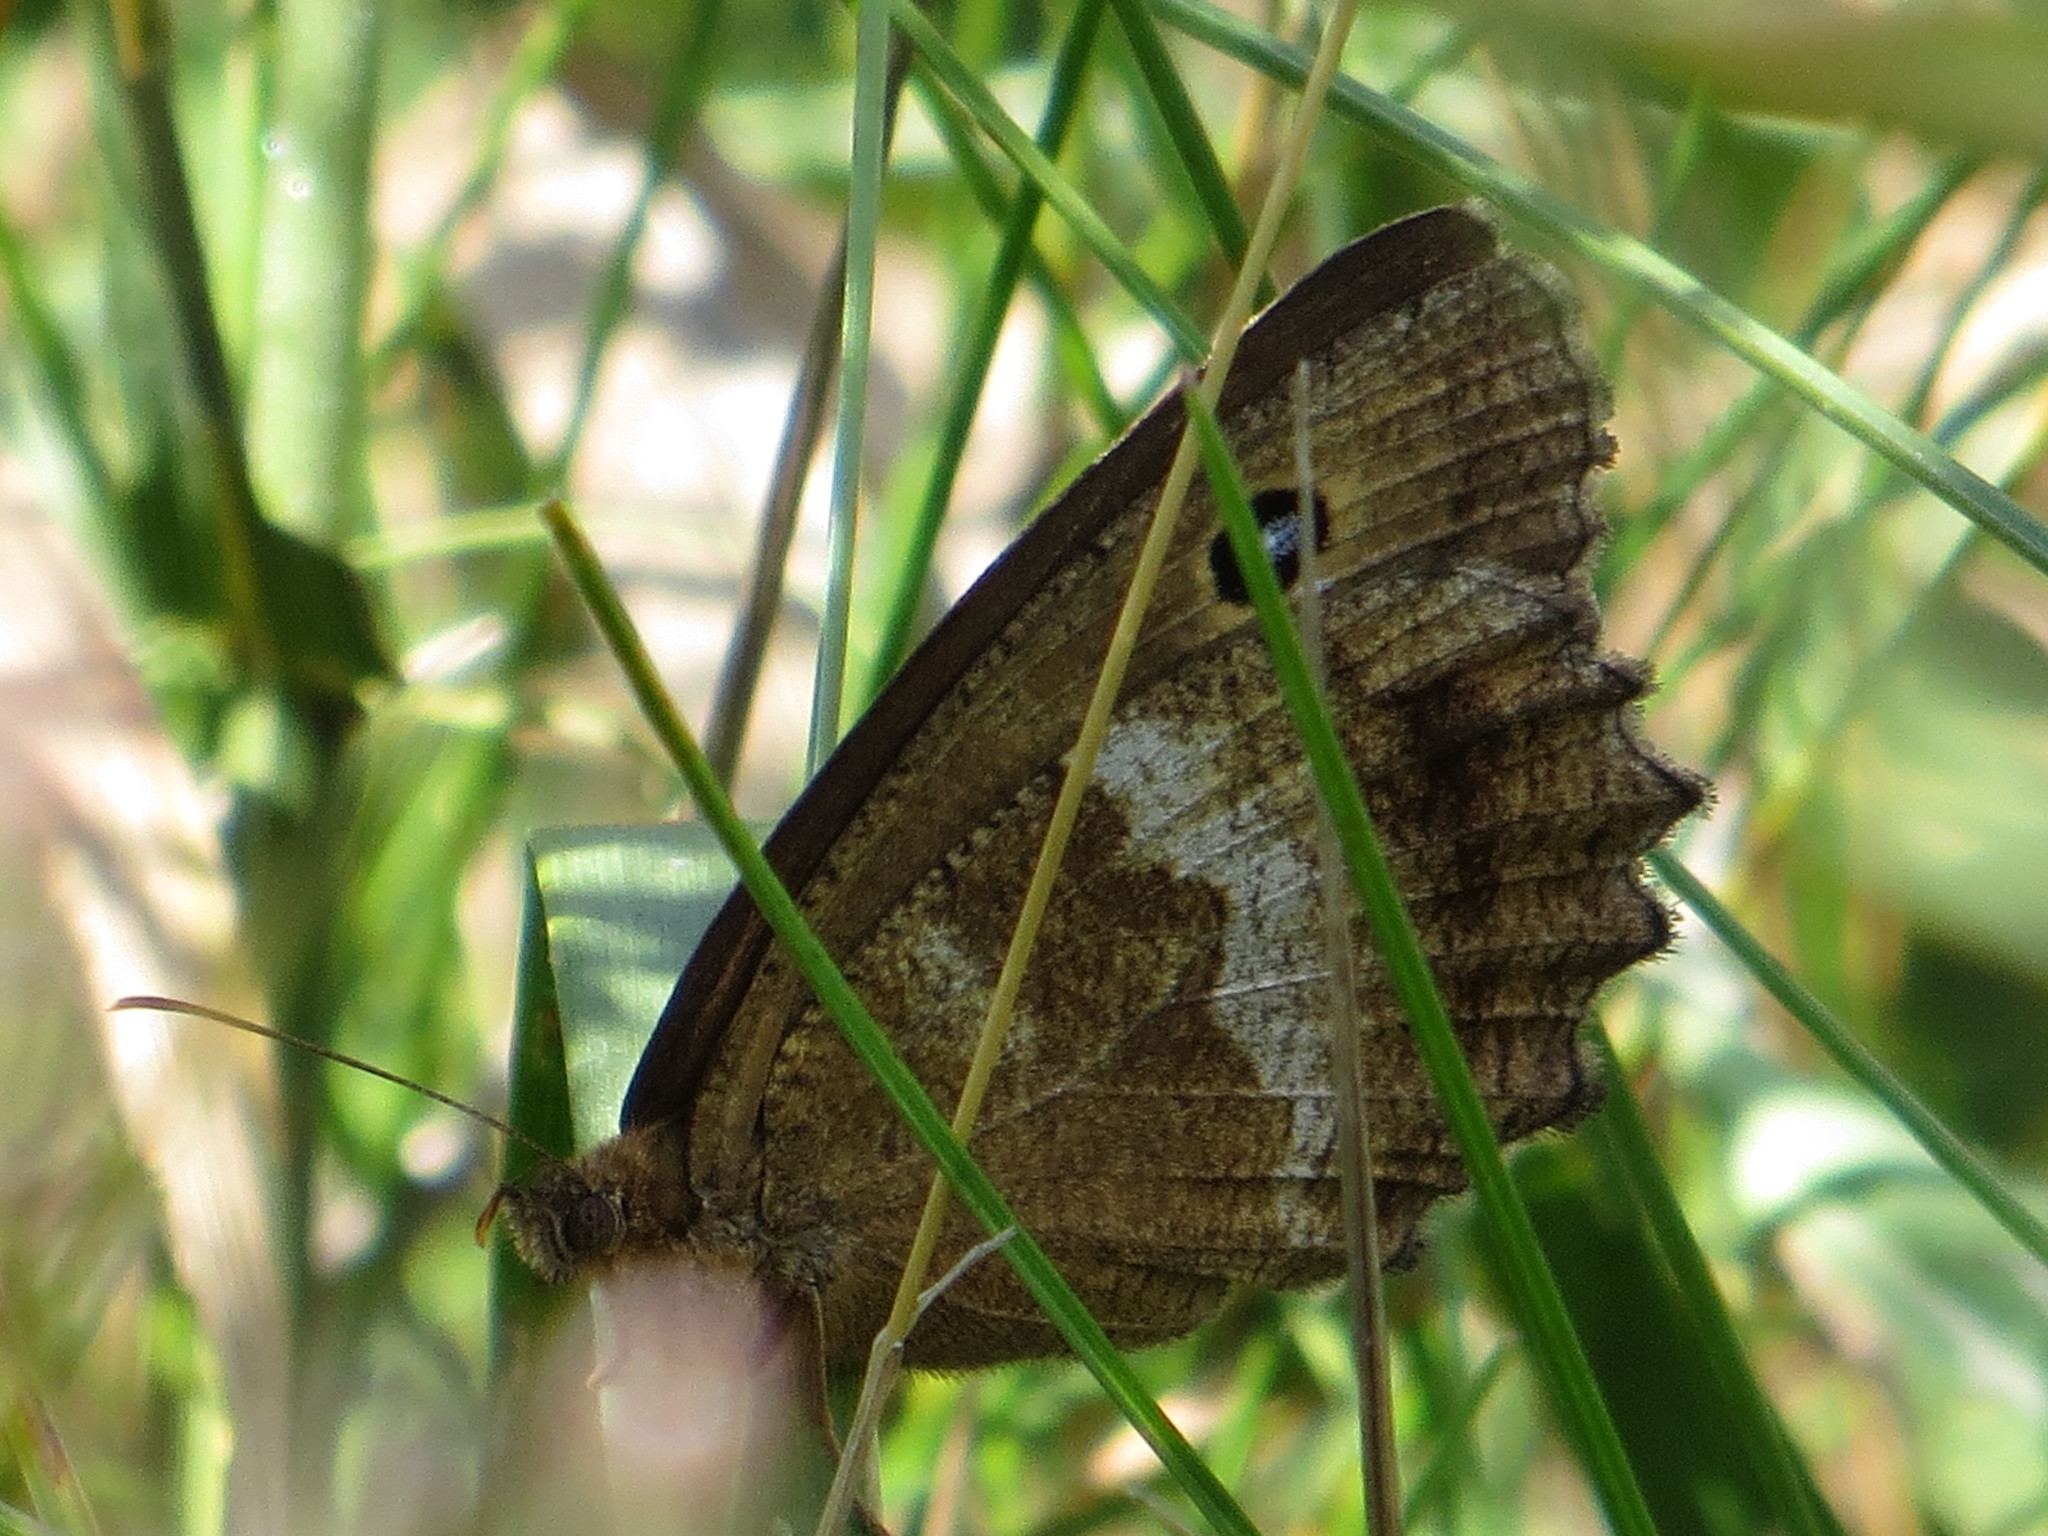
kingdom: Animalia
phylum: Arthropoda
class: Insecta
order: Lepidoptera
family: Nymphalidae
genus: Minois
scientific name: Minois dryas
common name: Dryad
